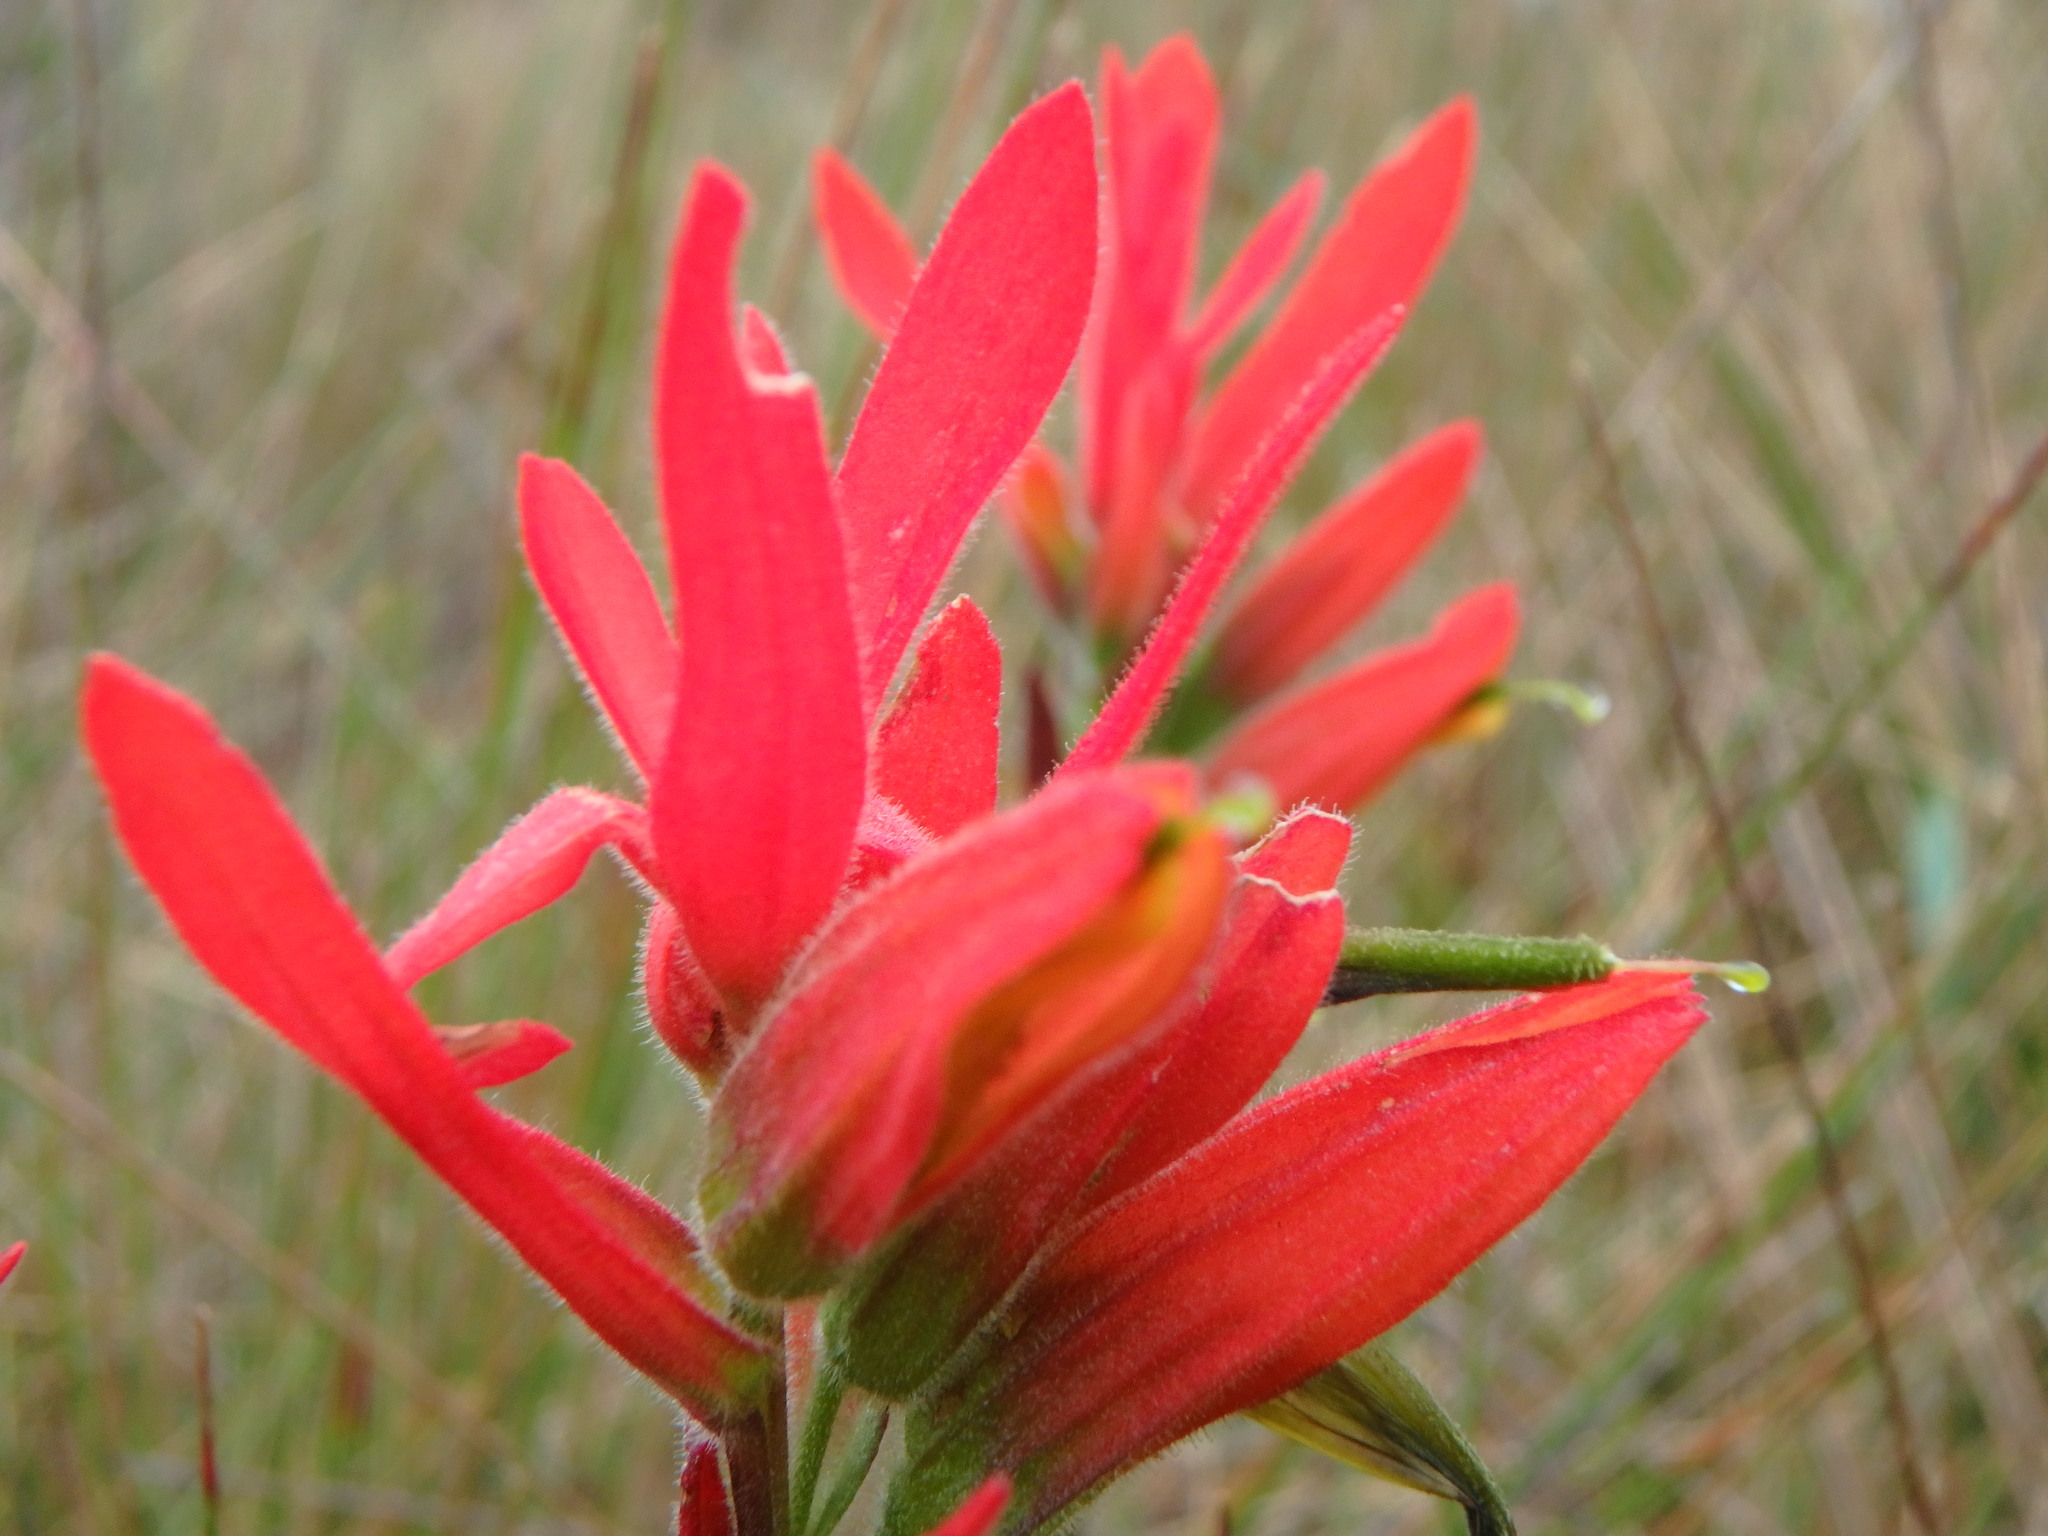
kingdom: Plantae
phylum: Tracheophyta
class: Magnoliopsida
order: Lamiales
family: Orobanchaceae
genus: Castilleja
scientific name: Castilleja integrifolia
